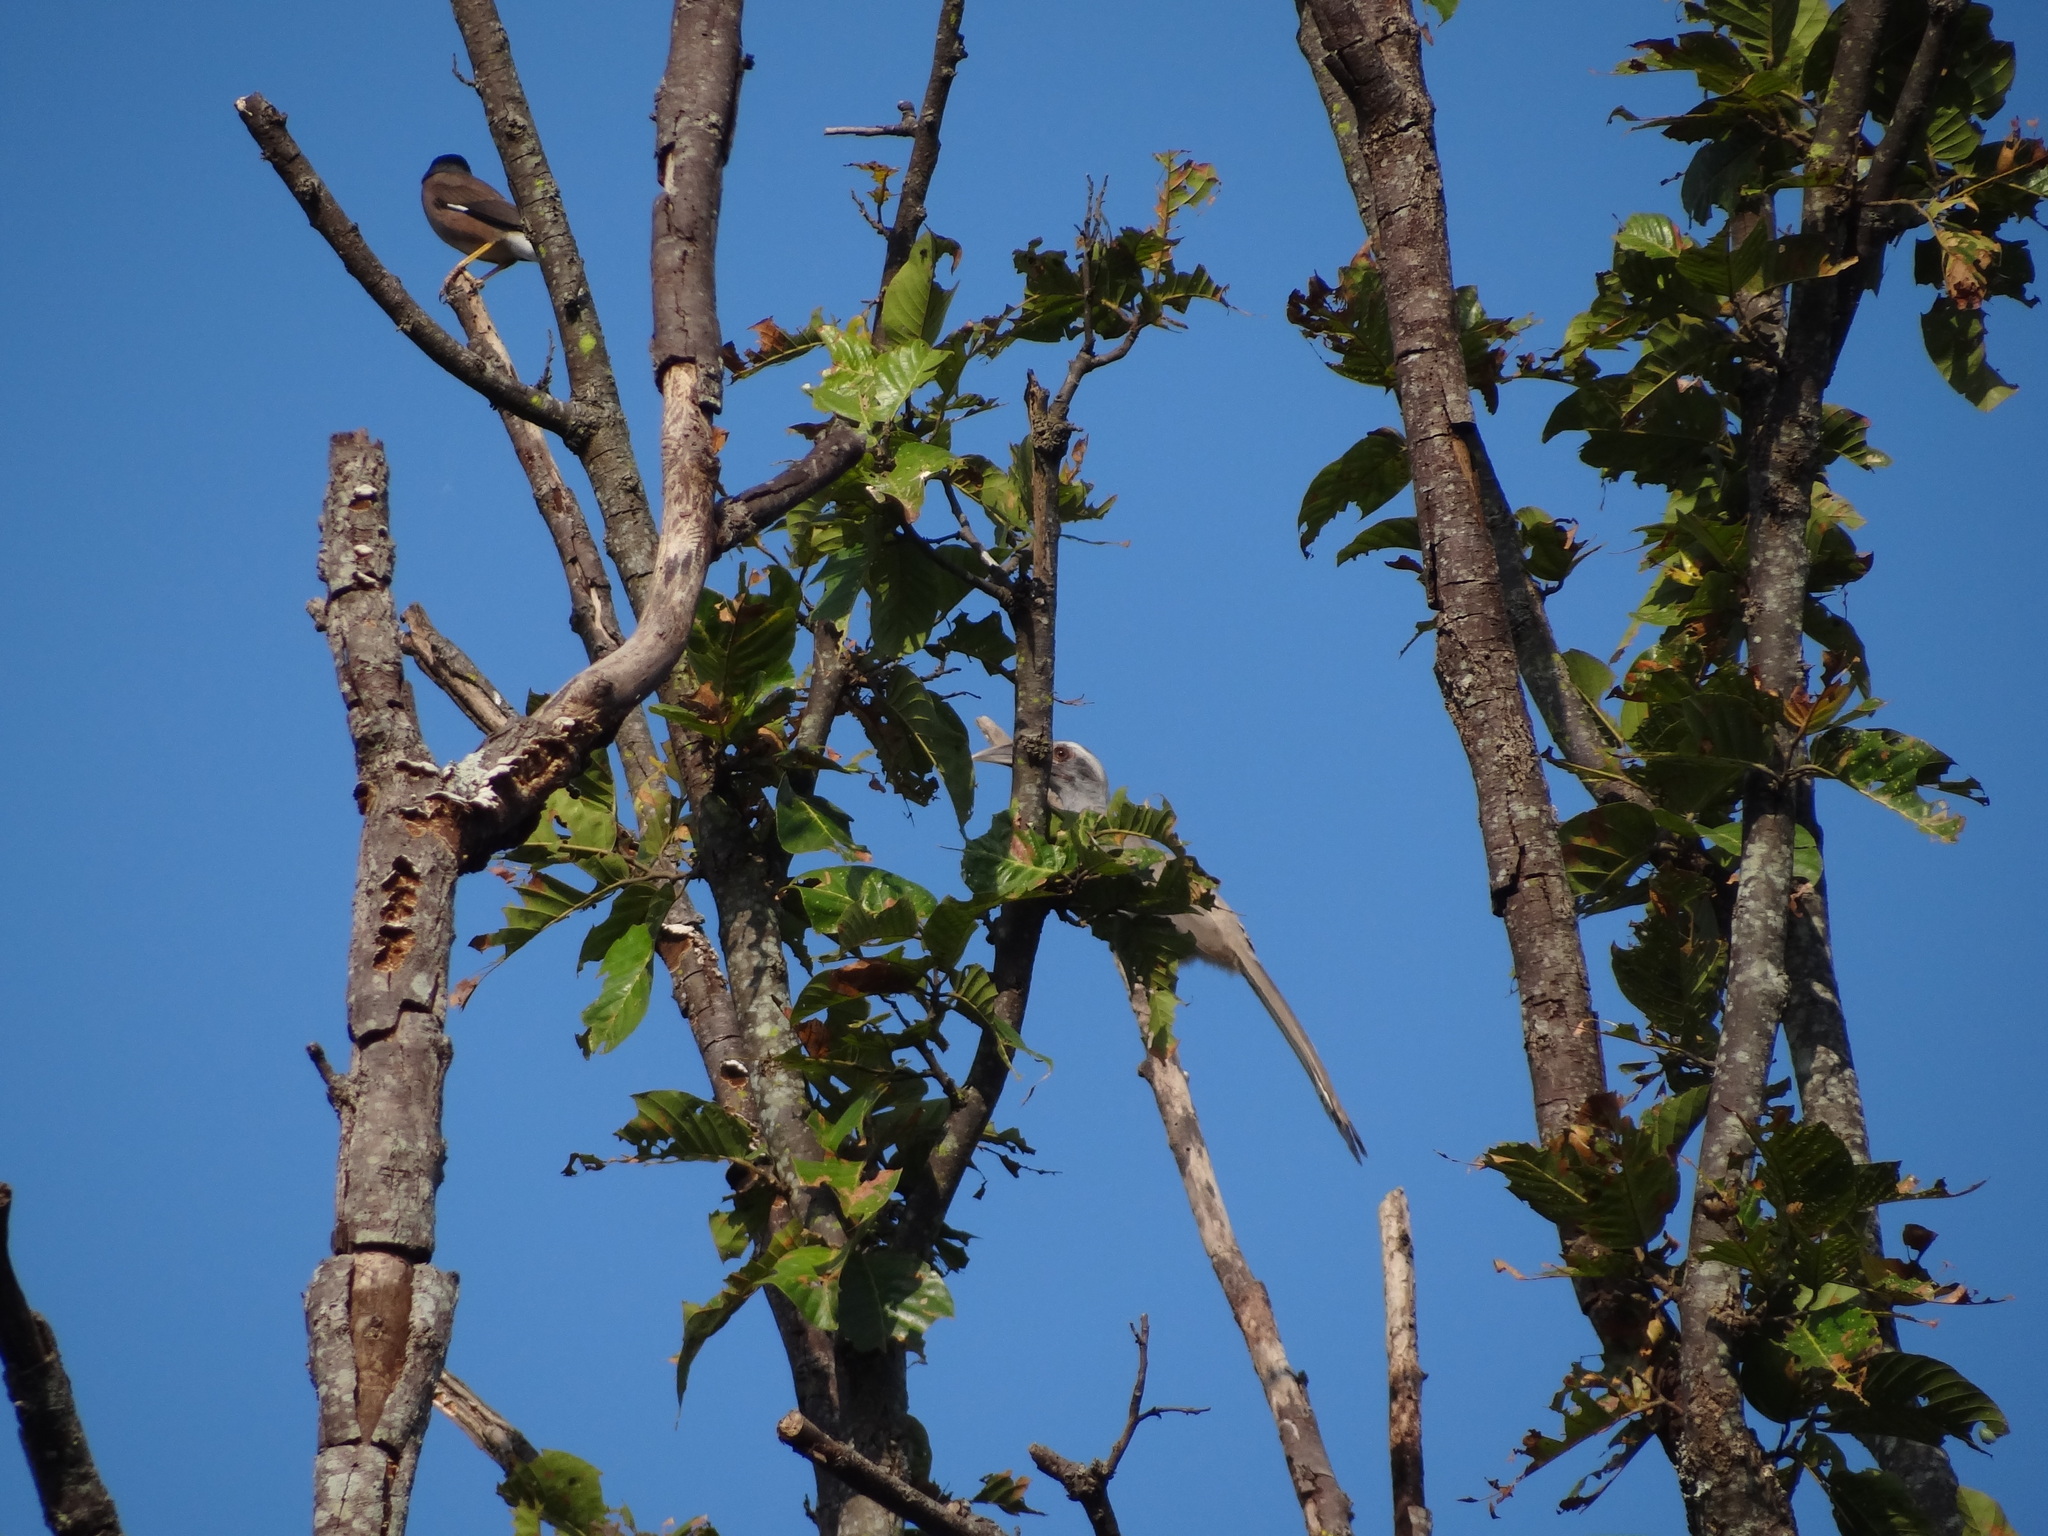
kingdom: Animalia
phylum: Chordata
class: Aves
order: Bucerotiformes
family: Bucerotidae
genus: Ocyceros
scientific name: Ocyceros birostris
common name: Indian grey hornbill
